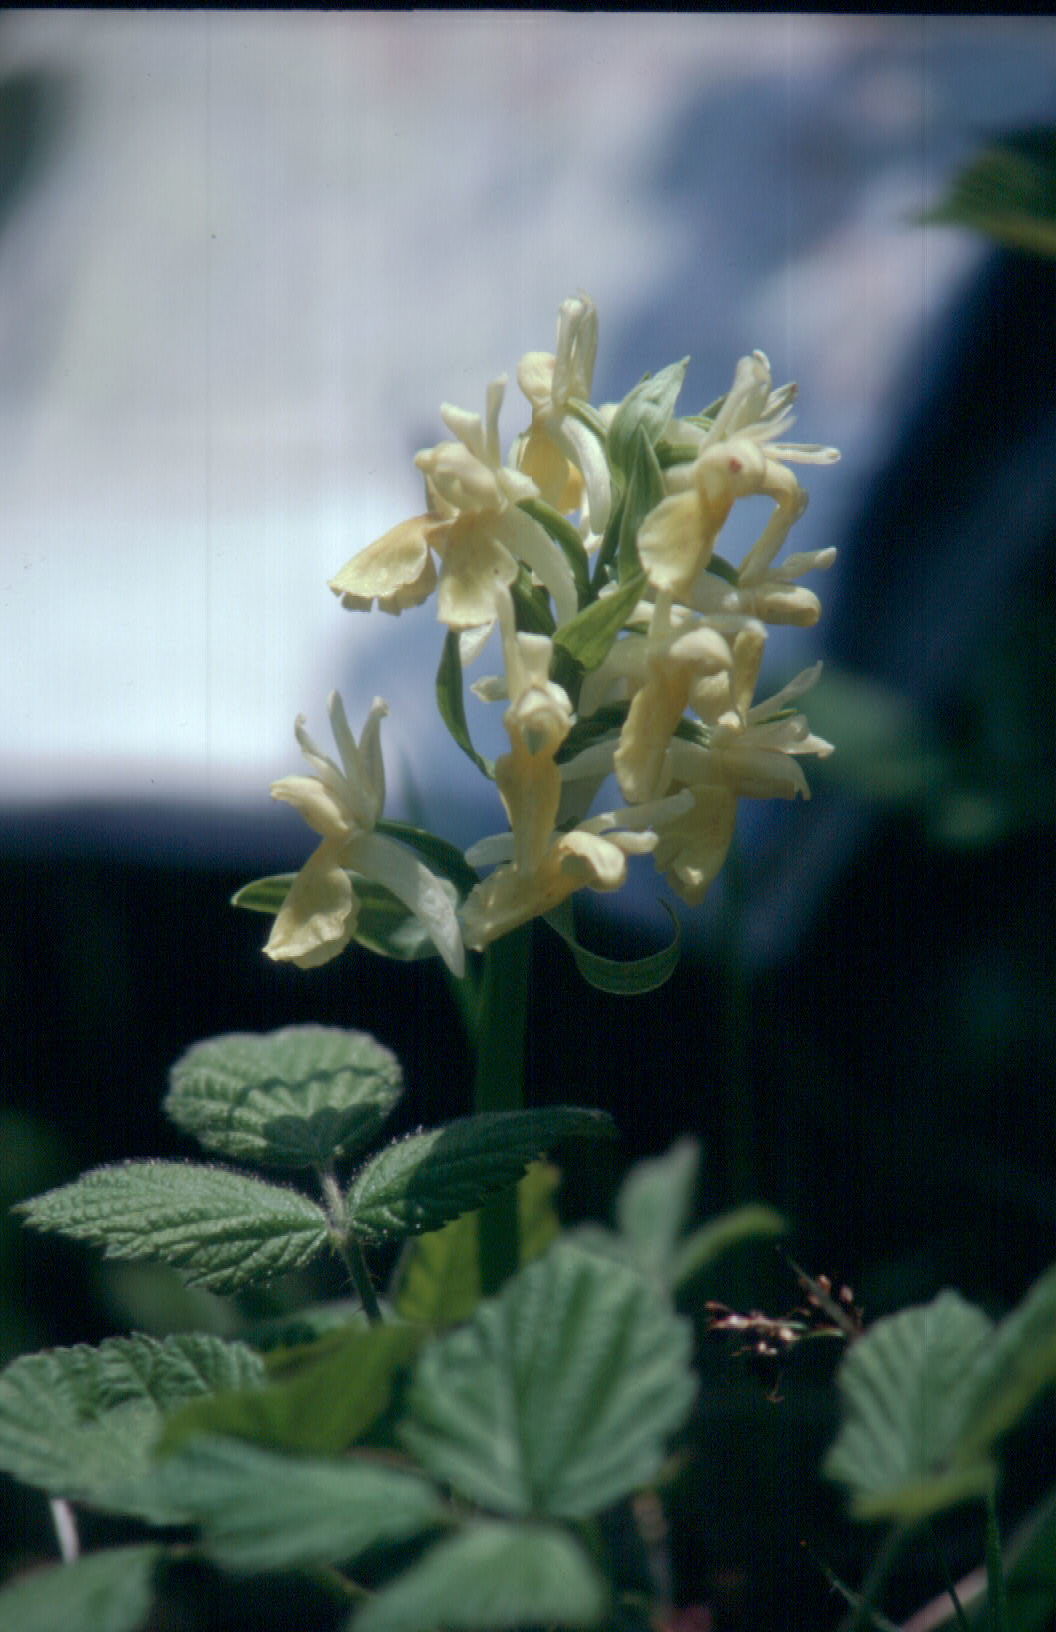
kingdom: Plantae
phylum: Tracheophyta
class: Liliopsida
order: Asparagales
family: Orchidaceae
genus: Dactylorhiza
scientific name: Dactylorhiza sambucina
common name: Elder-flowered orchid
